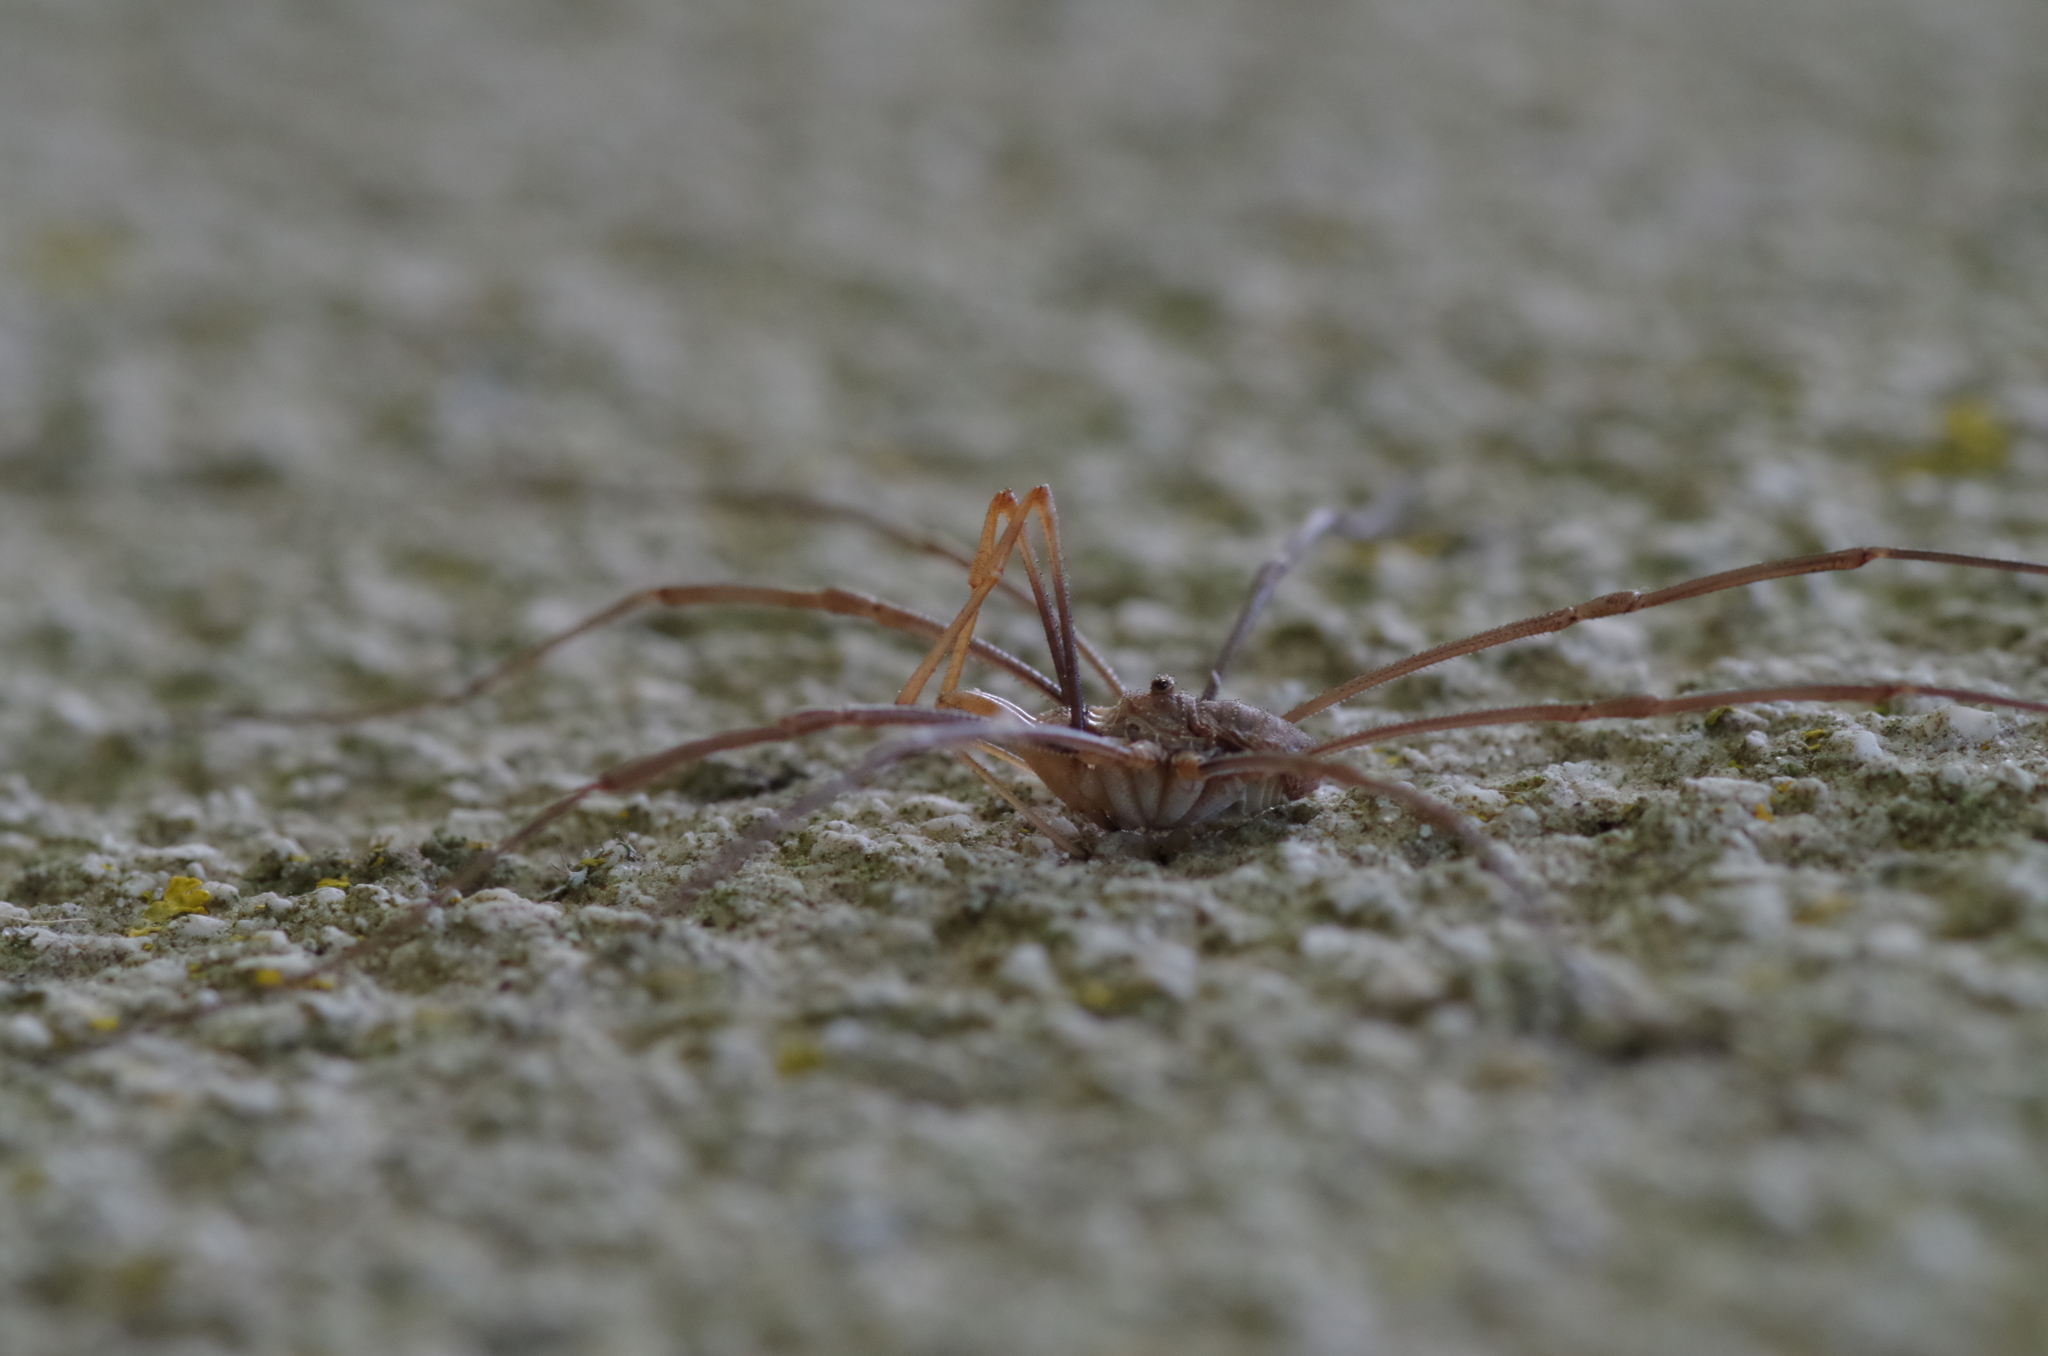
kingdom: Animalia
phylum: Arthropoda
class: Arachnida
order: Opiliones
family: Phalangiidae
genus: Phalangium
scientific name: Phalangium opilio
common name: Daddy longleg
